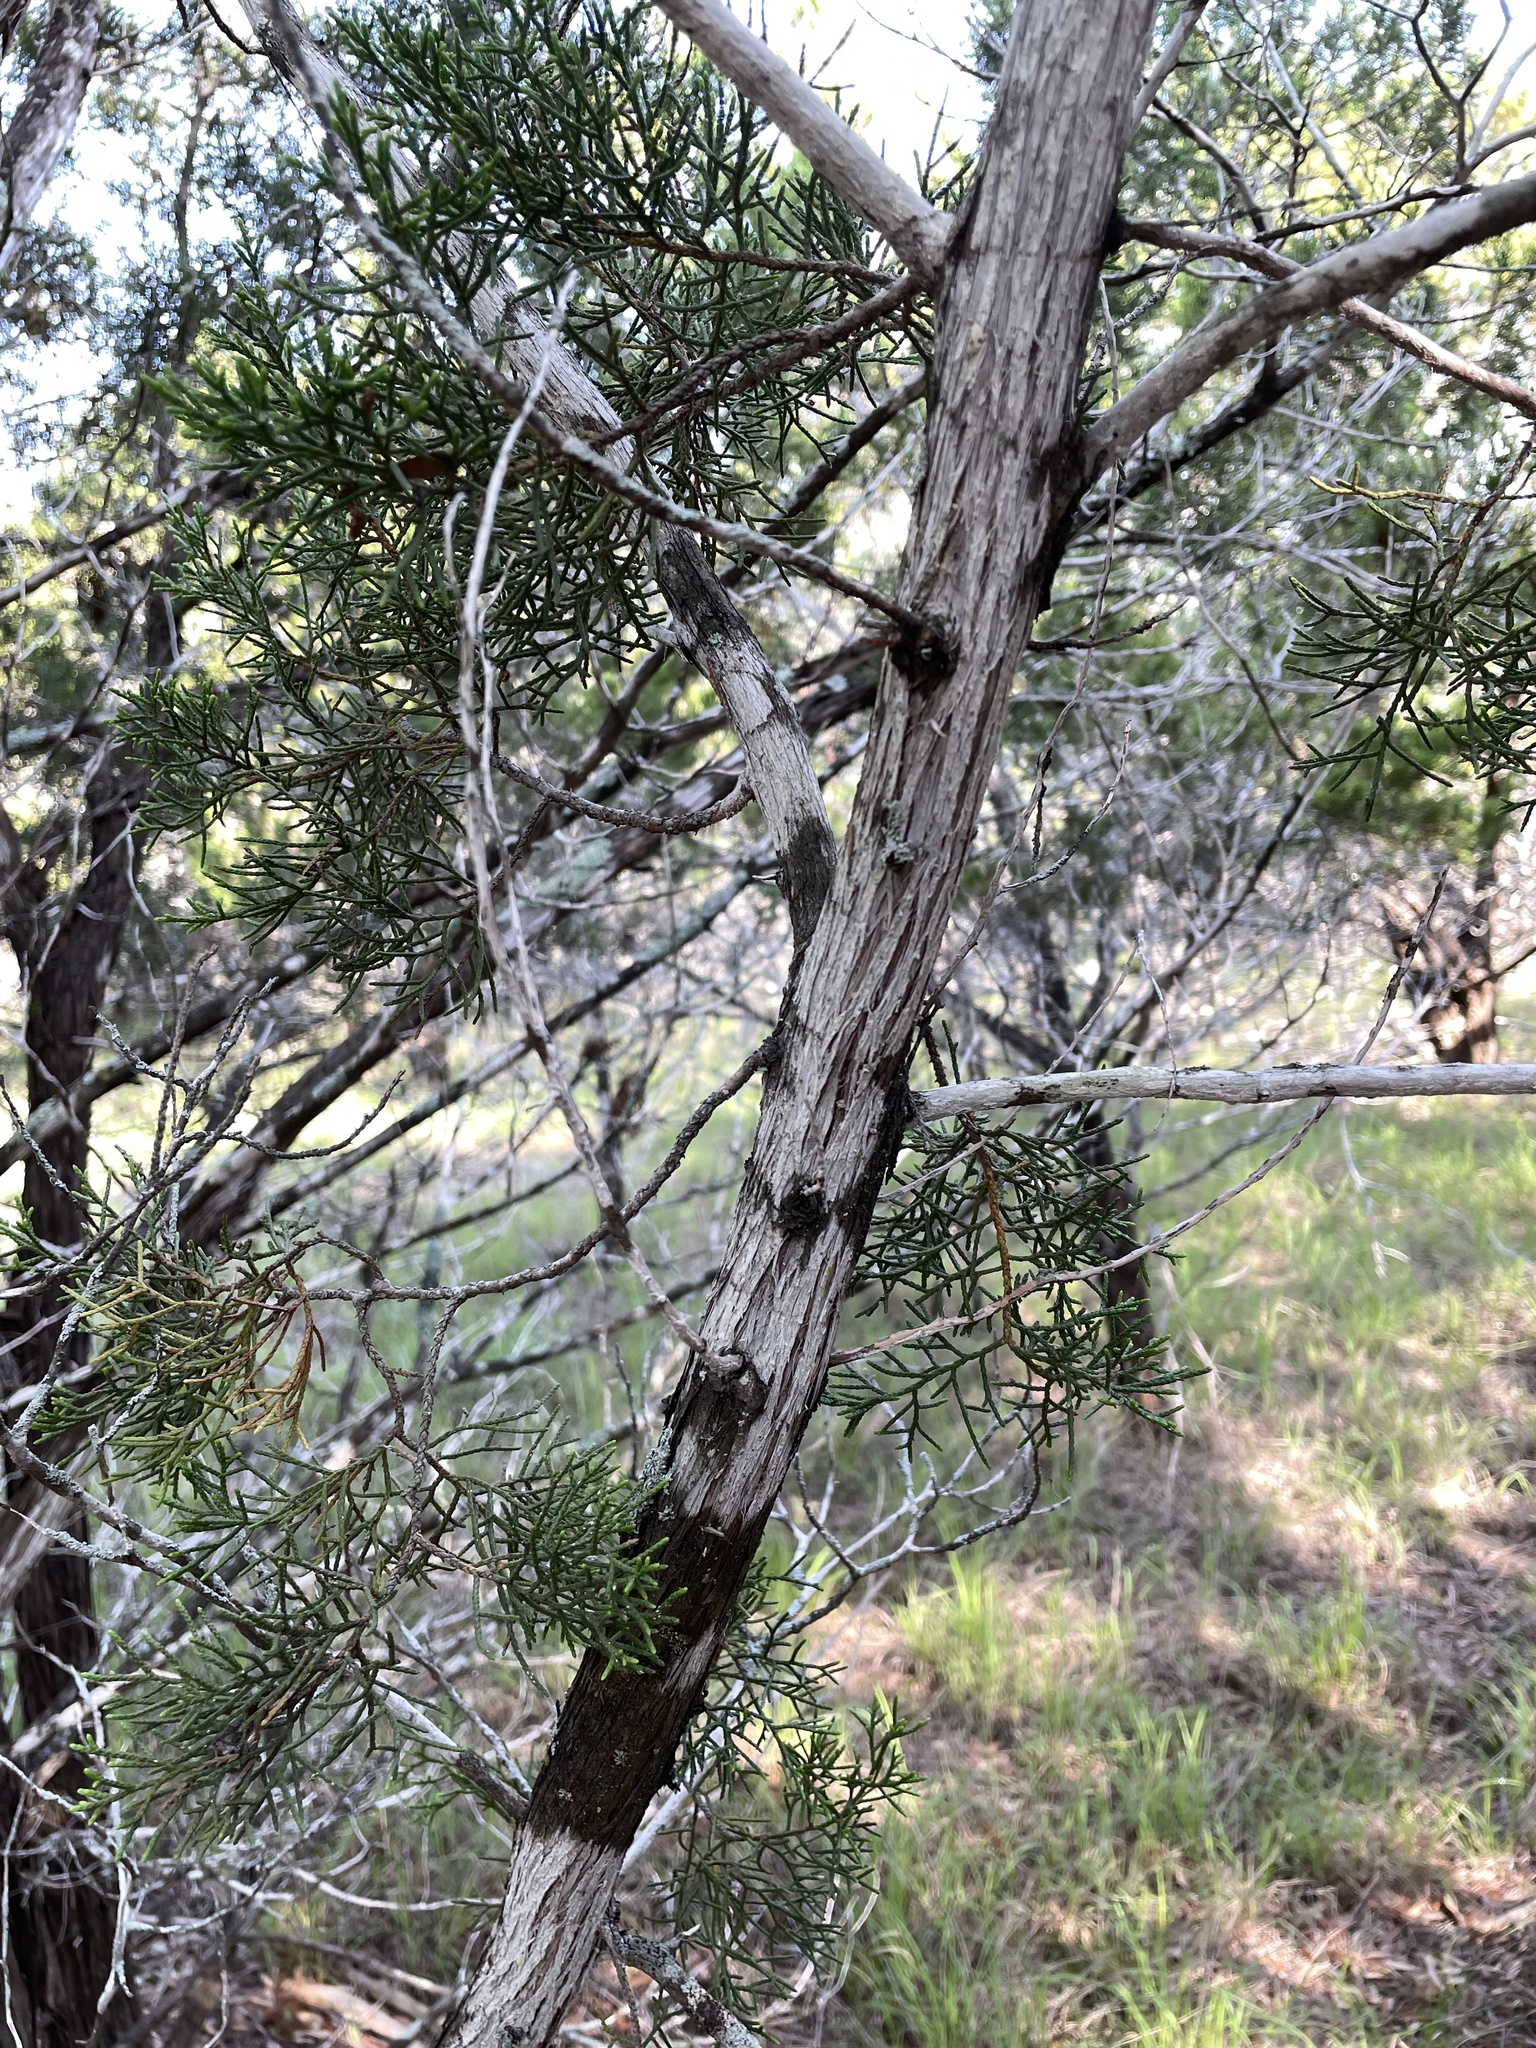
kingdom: Fungi
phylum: Ascomycota
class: Lecanoromycetes
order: Ostropales
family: Stictidaceae
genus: Robergea
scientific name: Robergea
